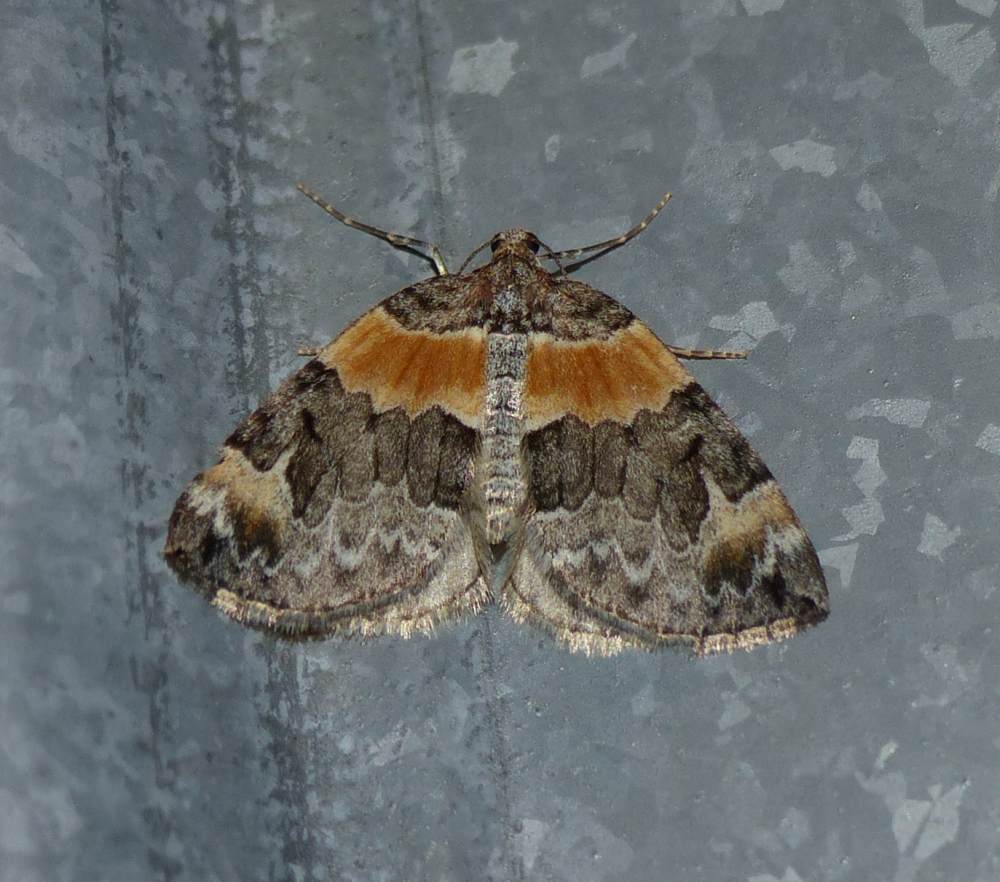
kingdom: Animalia
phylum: Arthropoda
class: Insecta
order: Lepidoptera
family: Geometridae
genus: Dysstroma
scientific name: Dysstroma hersiliata
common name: Orange-barred carpet
